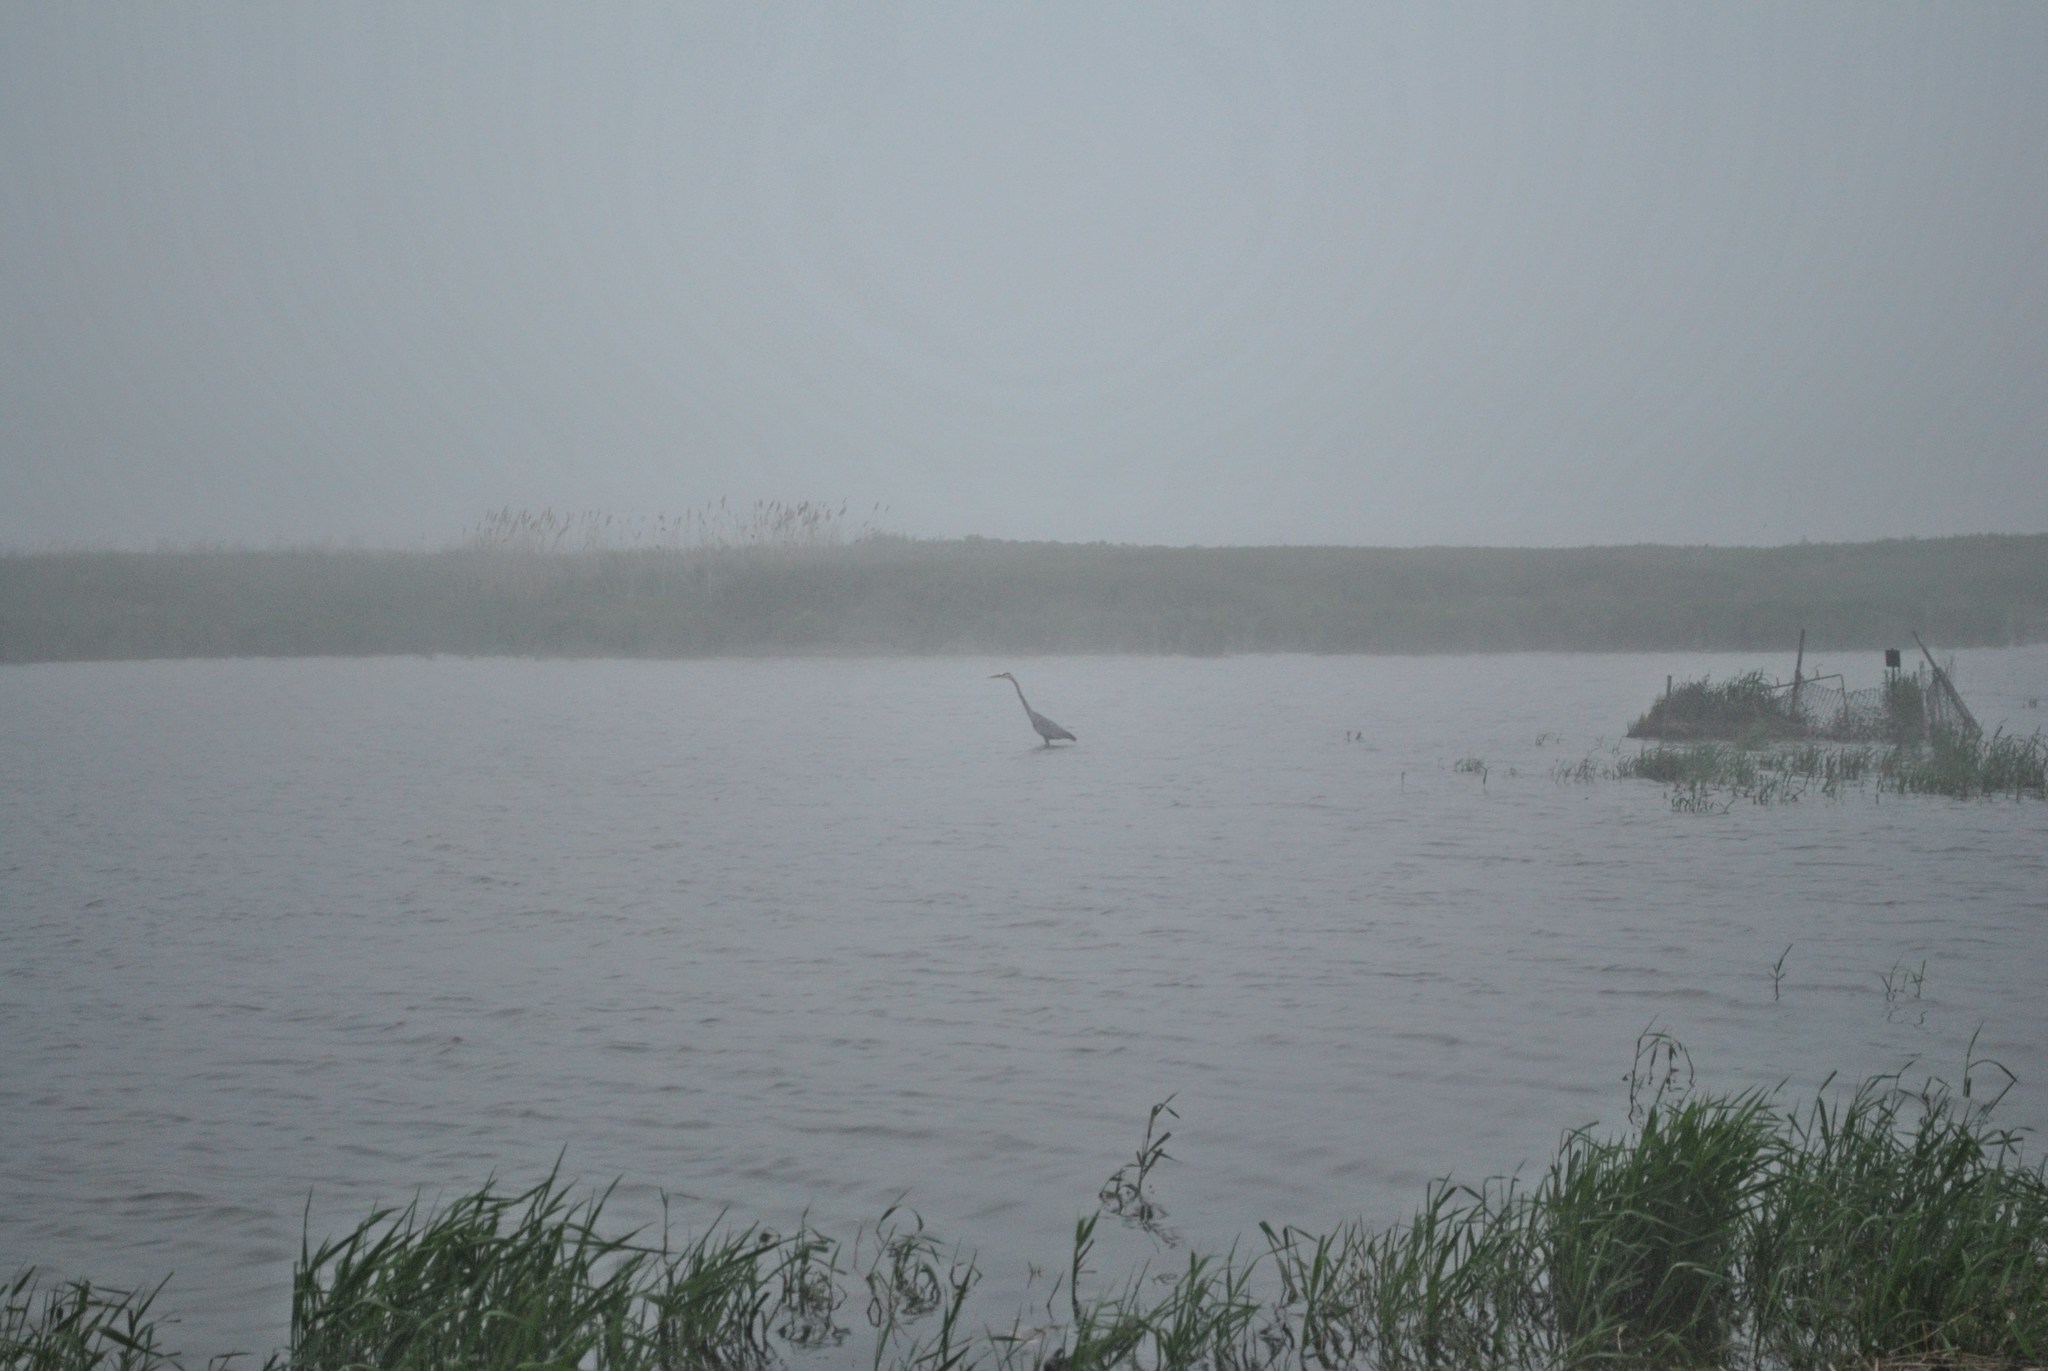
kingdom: Animalia
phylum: Chordata
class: Aves
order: Pelecaniformes
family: Ardeidae
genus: Ardea
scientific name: Ardea herodias
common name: Great blue heron
